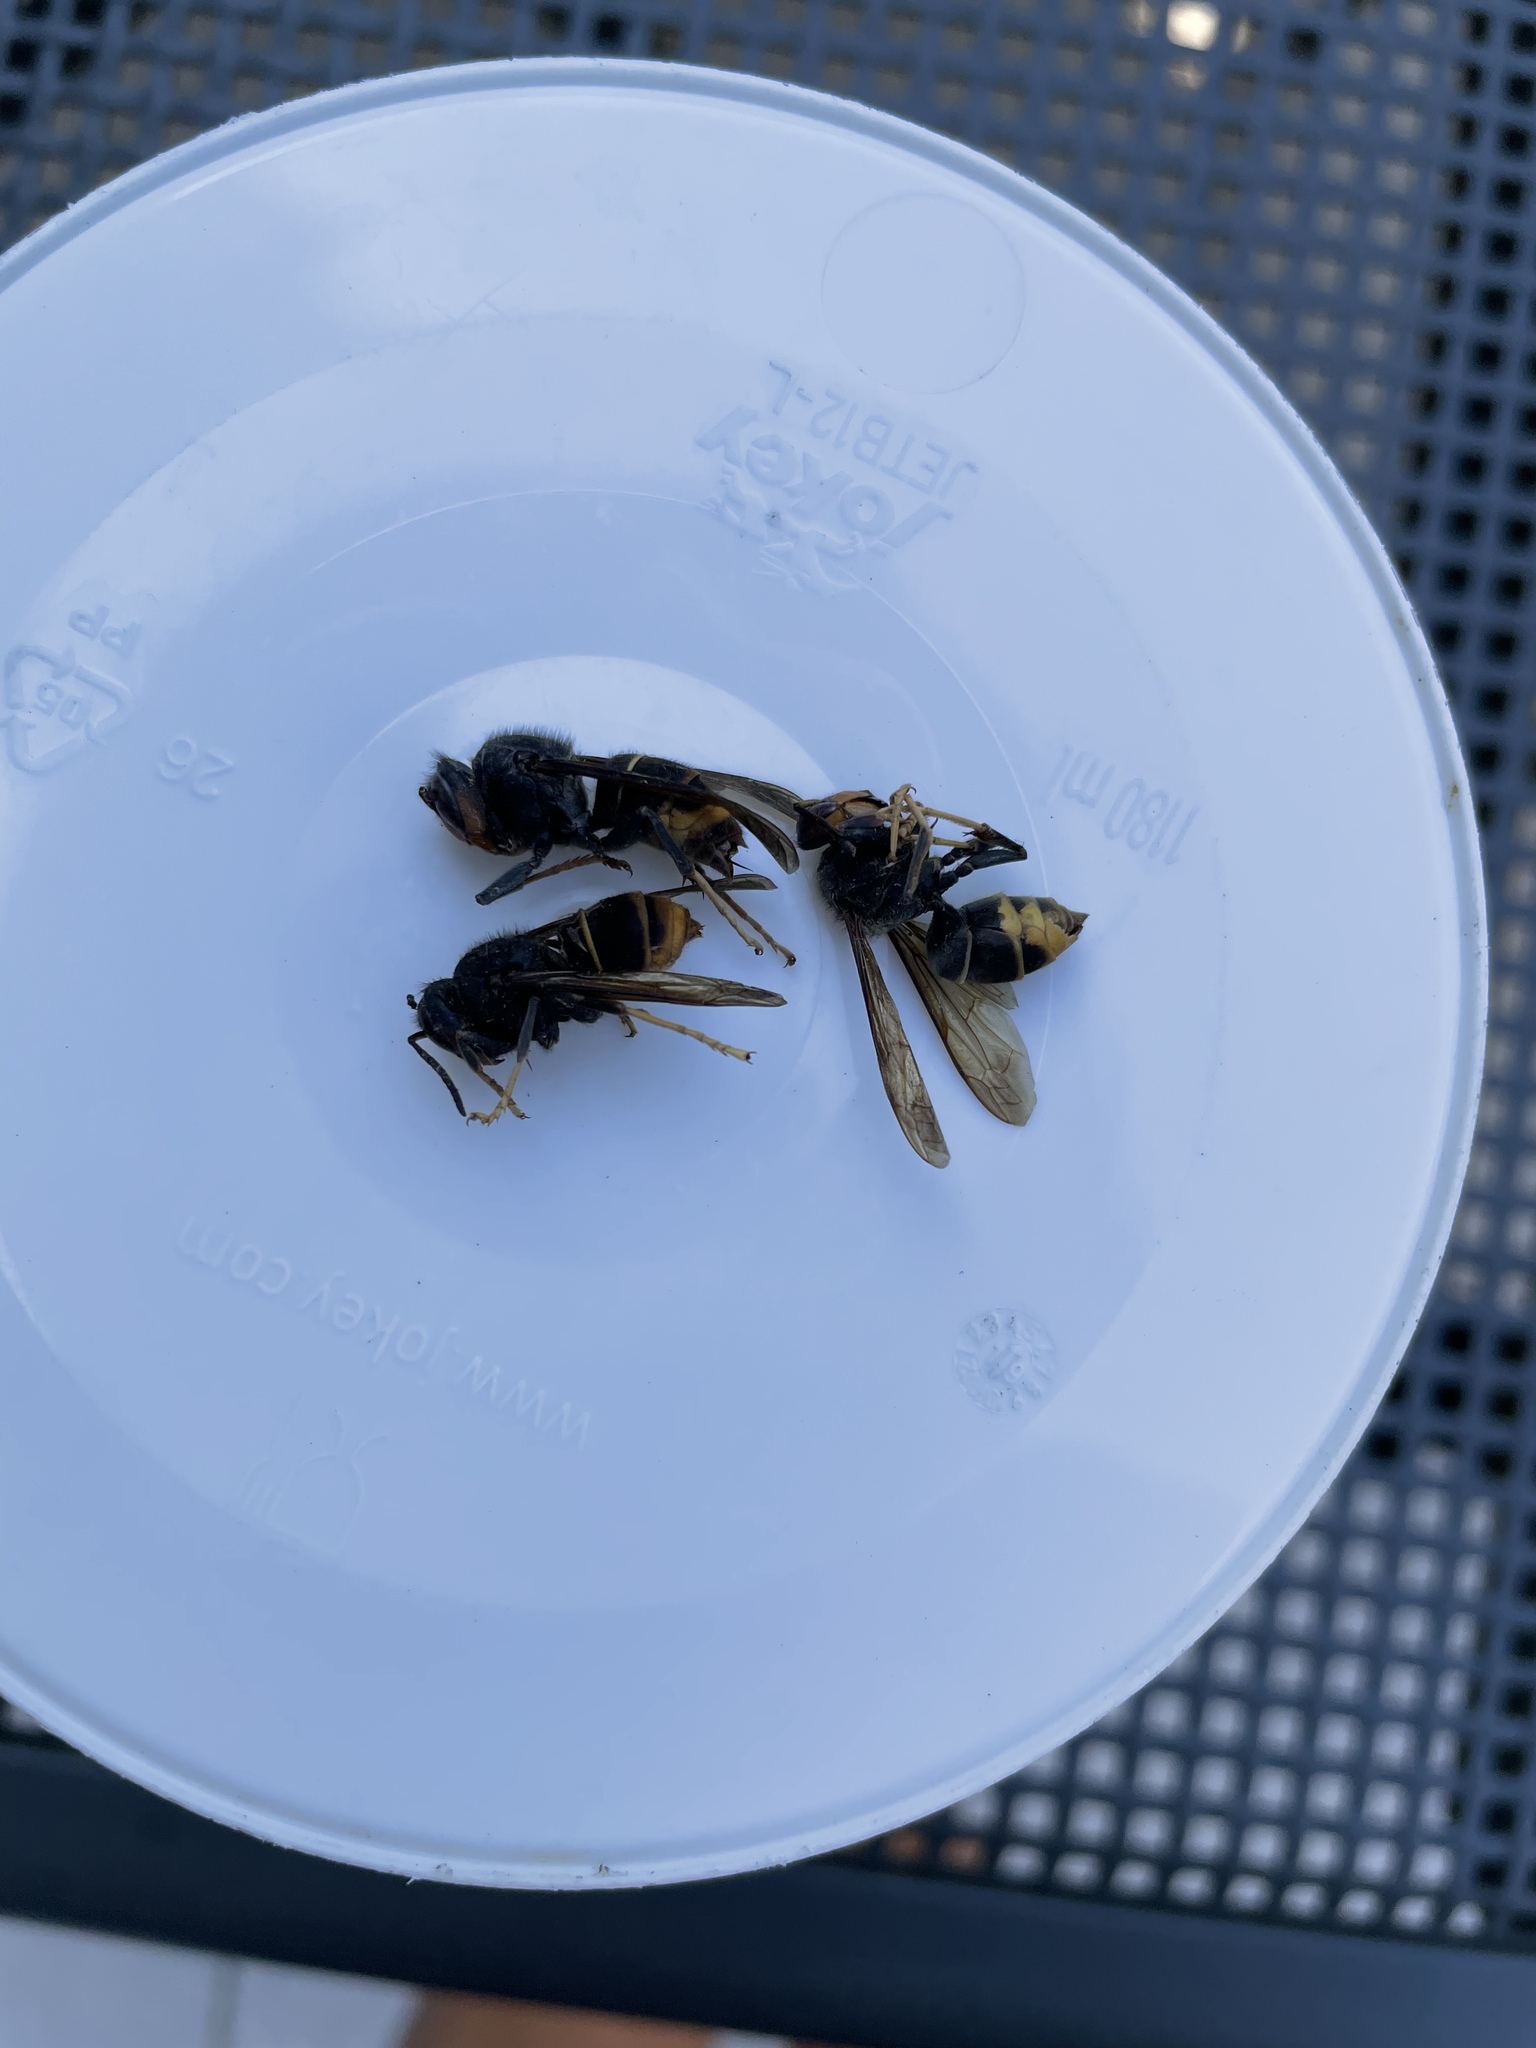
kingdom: Animalia
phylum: Arthropoda
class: Insecta
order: Hymenoptera
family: Vespidae
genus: Vespa
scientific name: Vespa velutina
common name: Asian hornet
